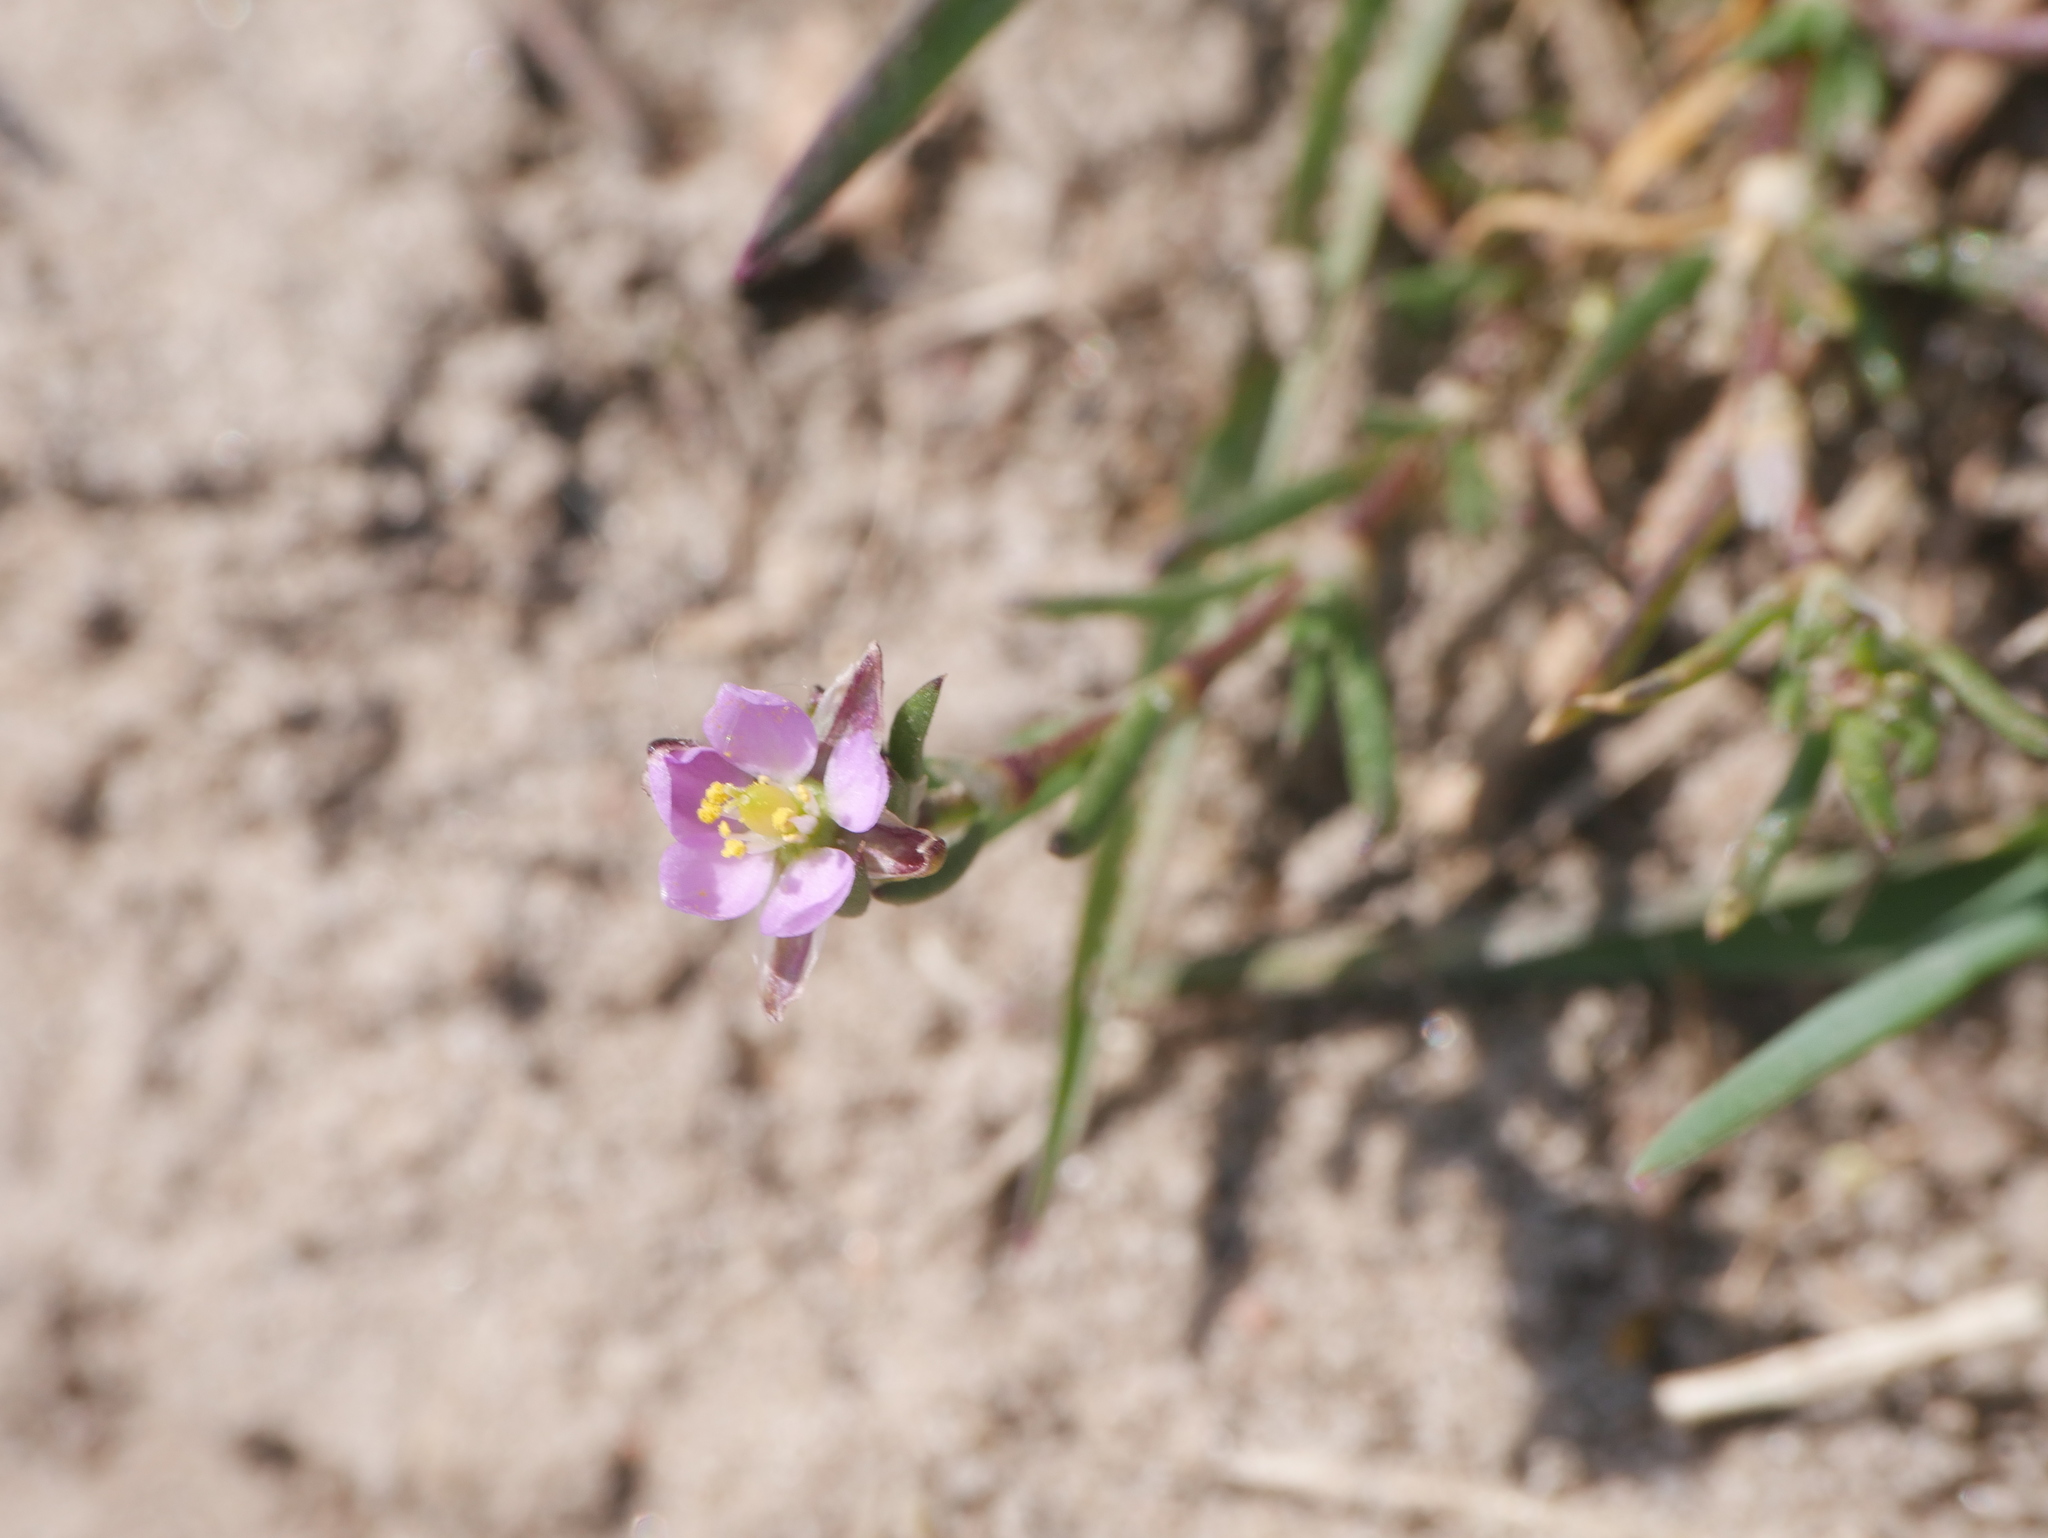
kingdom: Plantae
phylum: Tracheophyta
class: Magnoliopsida
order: Caryophyllales
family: Caryophyllaceae
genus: Spergularia
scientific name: Spergularia rubra
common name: Red sand-spurrey
